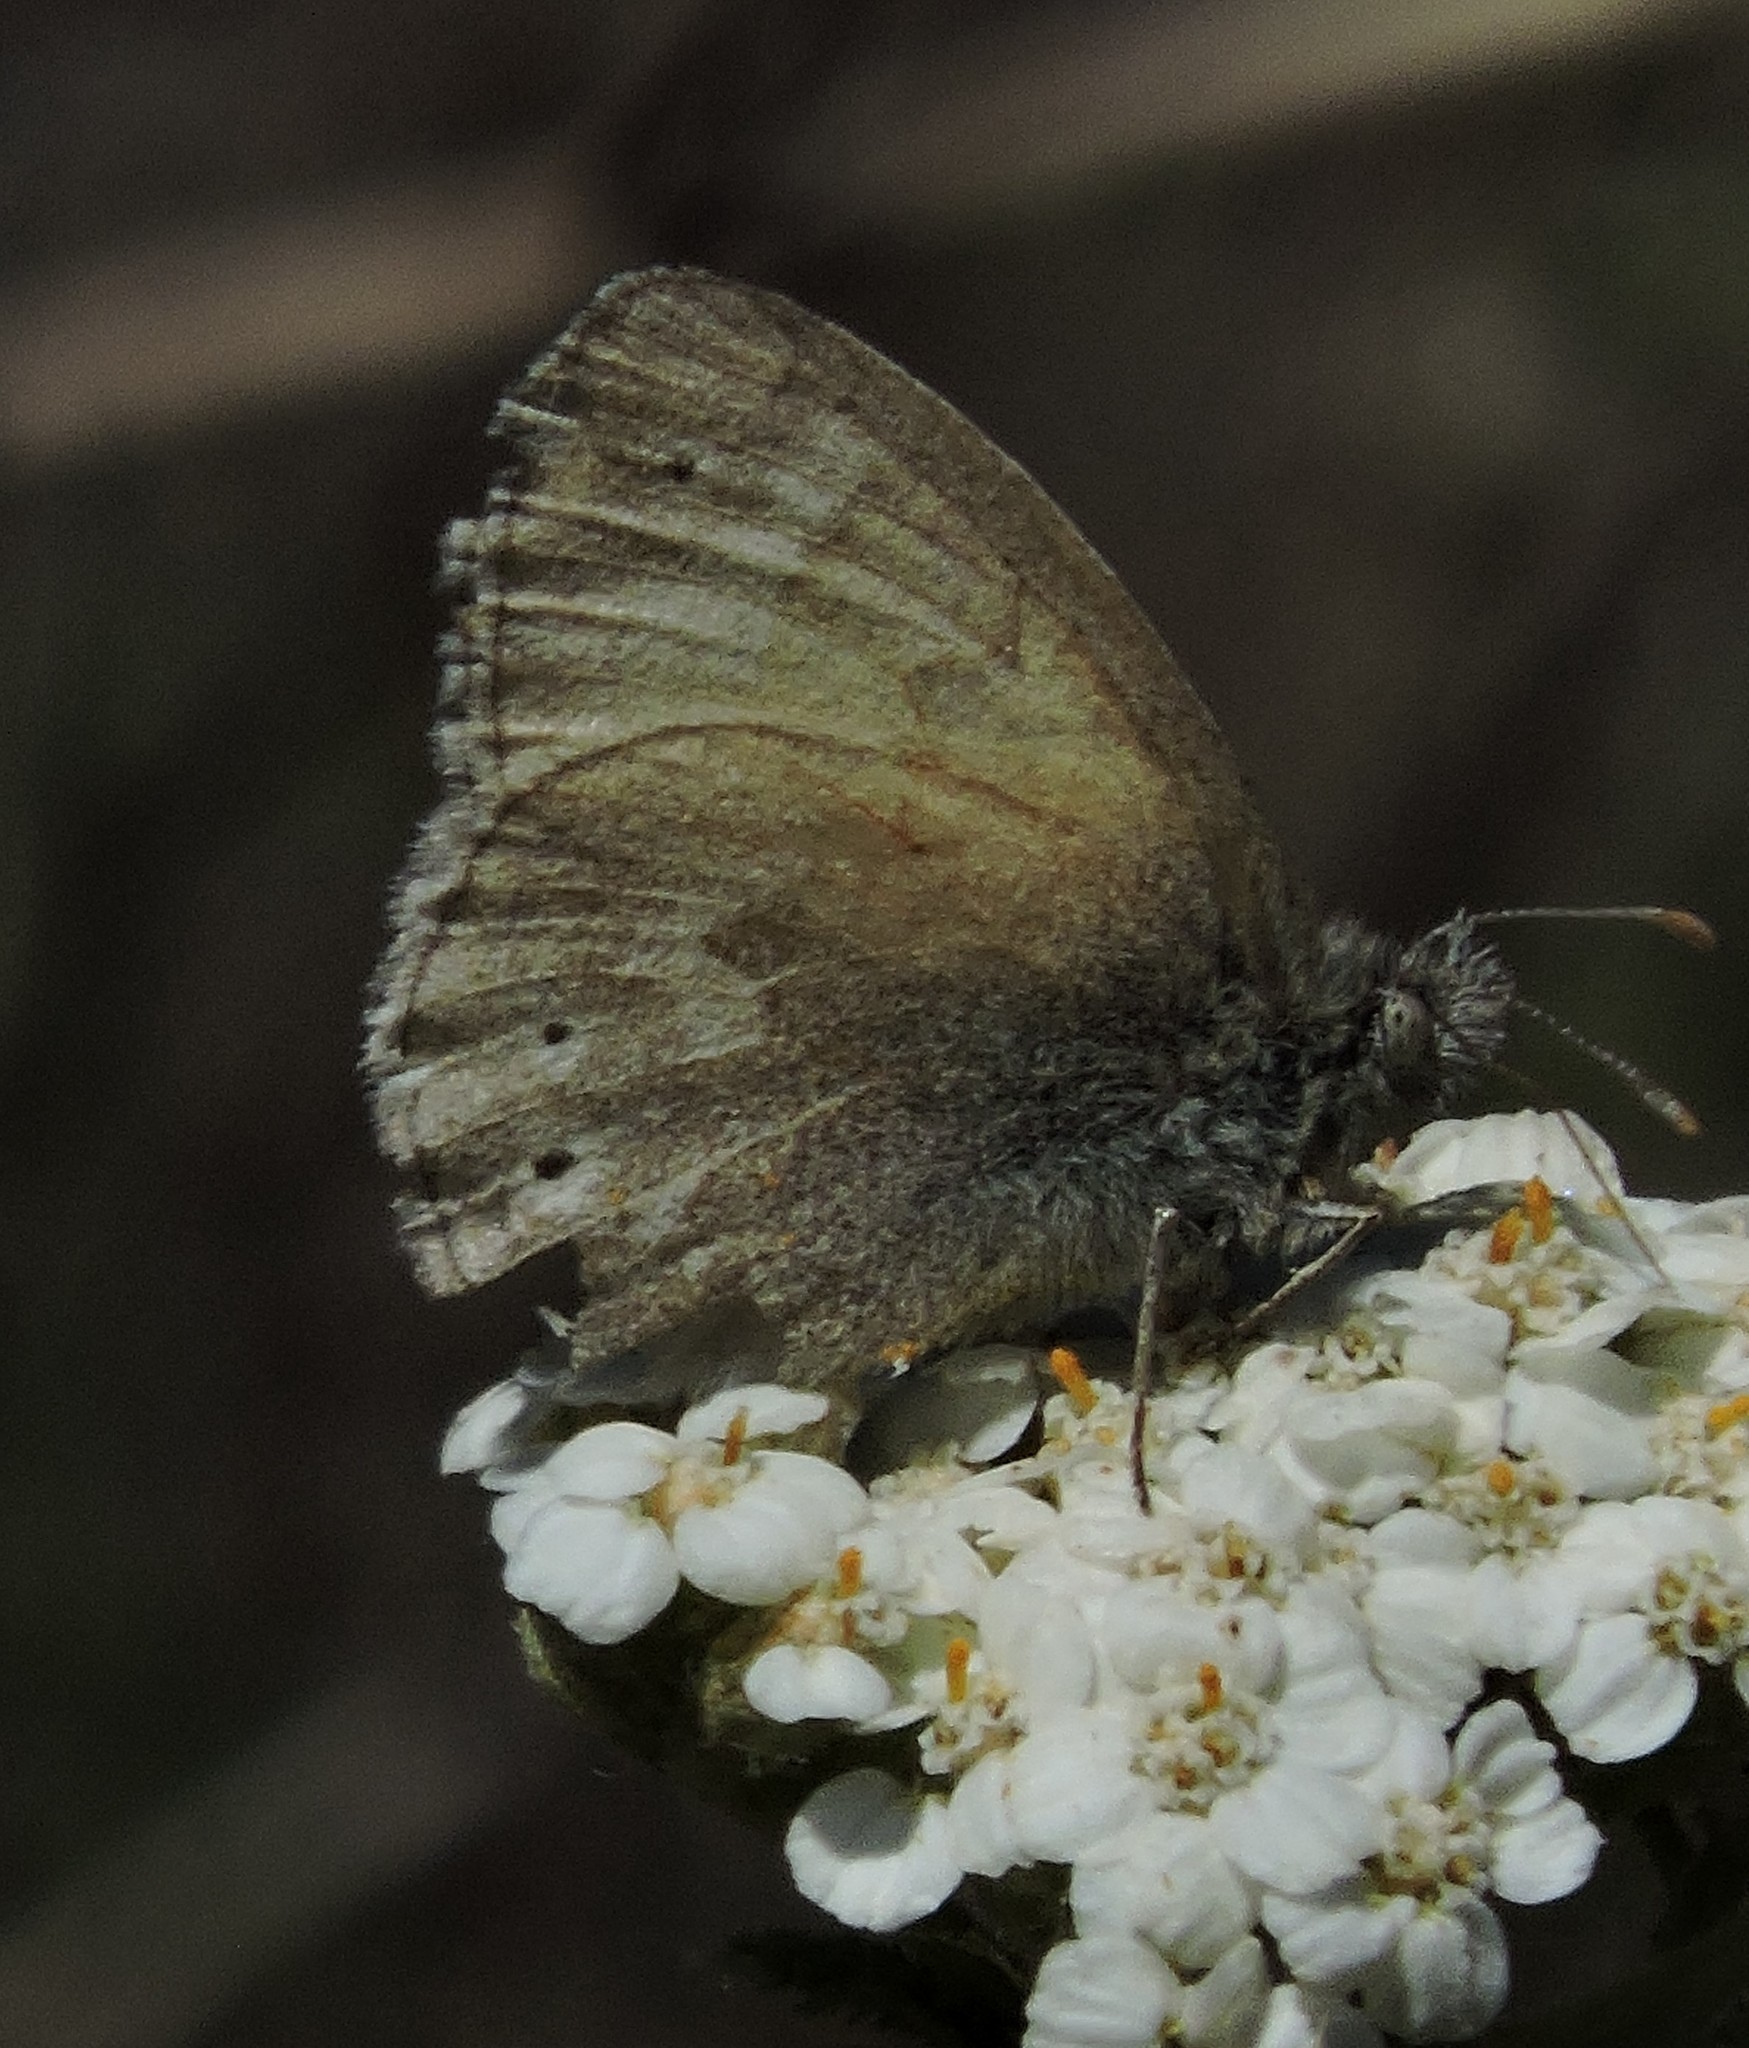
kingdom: Animalia
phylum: Arthropoda
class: Insecta
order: Lepidoptera
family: Nymphalidae
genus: Coenonympha
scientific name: Coenonympha california
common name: Common ringlet
